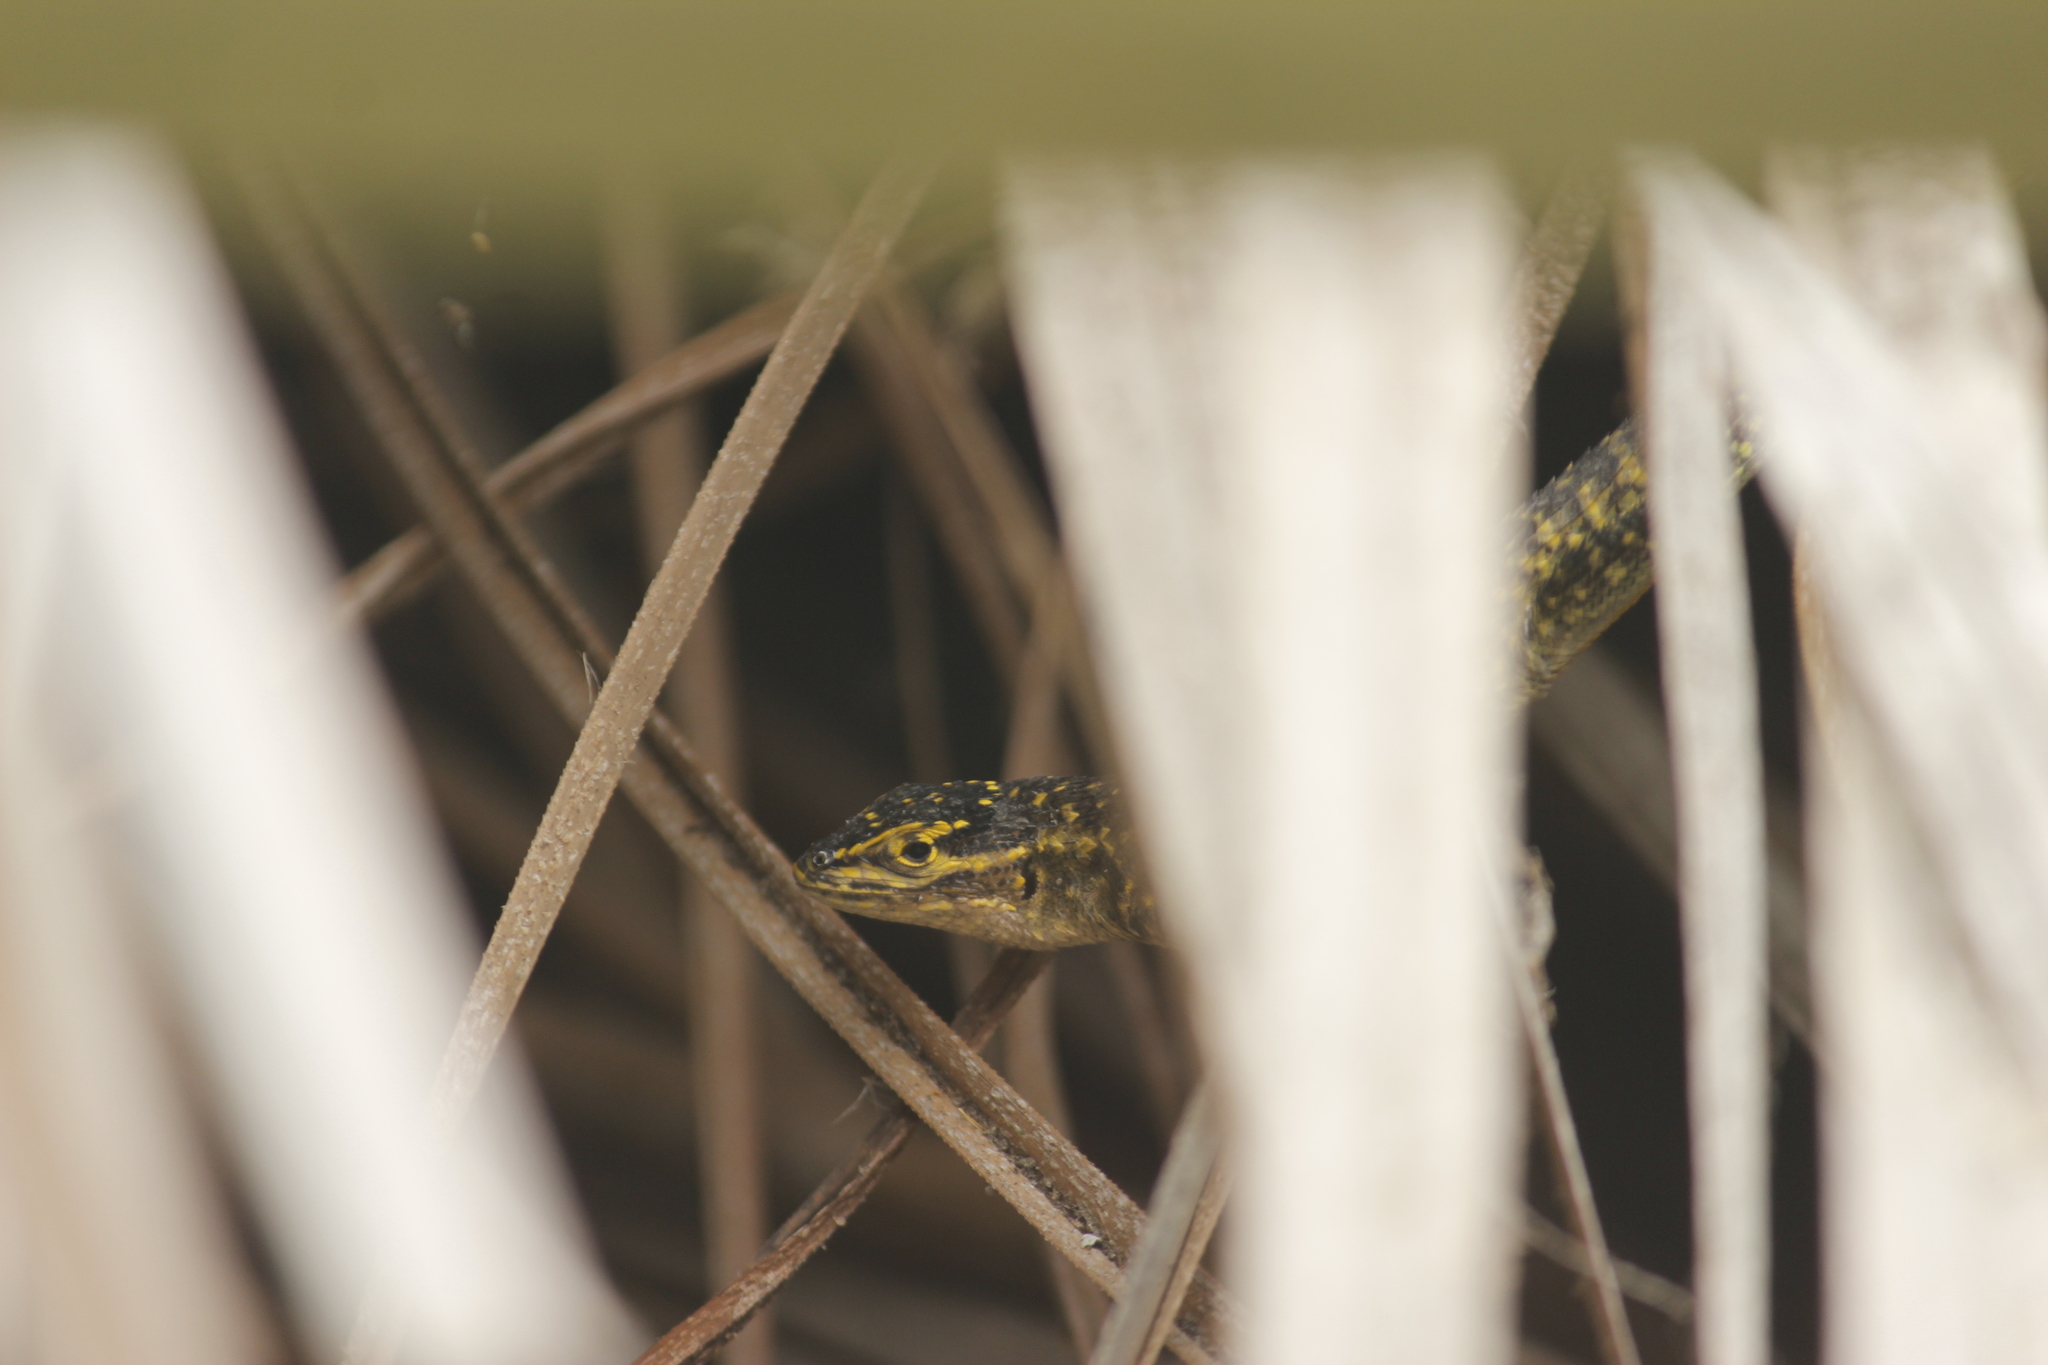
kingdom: Animalia
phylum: Chordata
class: Squamata
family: Tropiduridae
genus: Stenocercus
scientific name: Stenocercus modestus
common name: Modest whorltail iguana
